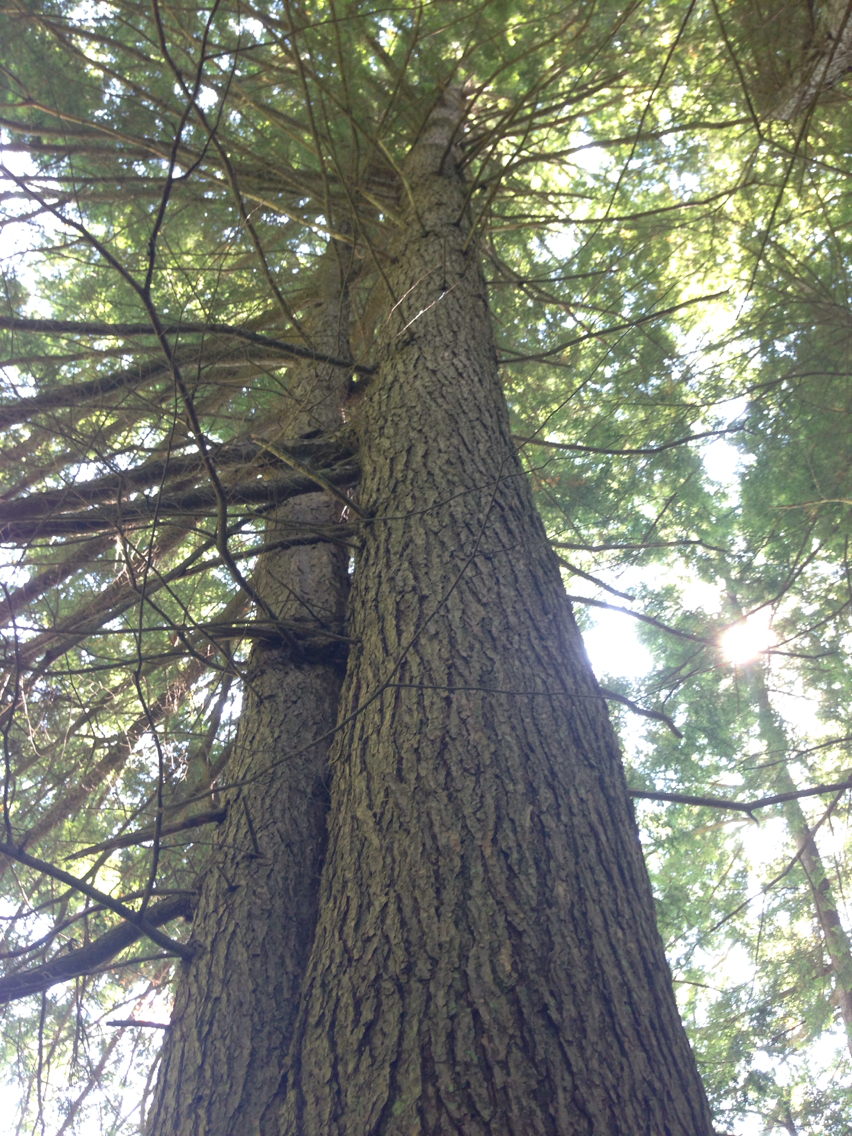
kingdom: Plantae
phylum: Tracheophyta
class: Pinopsida
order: Pinales
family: Pinaceae
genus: Tsuga
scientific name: Tsuga canadensis
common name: Eastern hemlock
